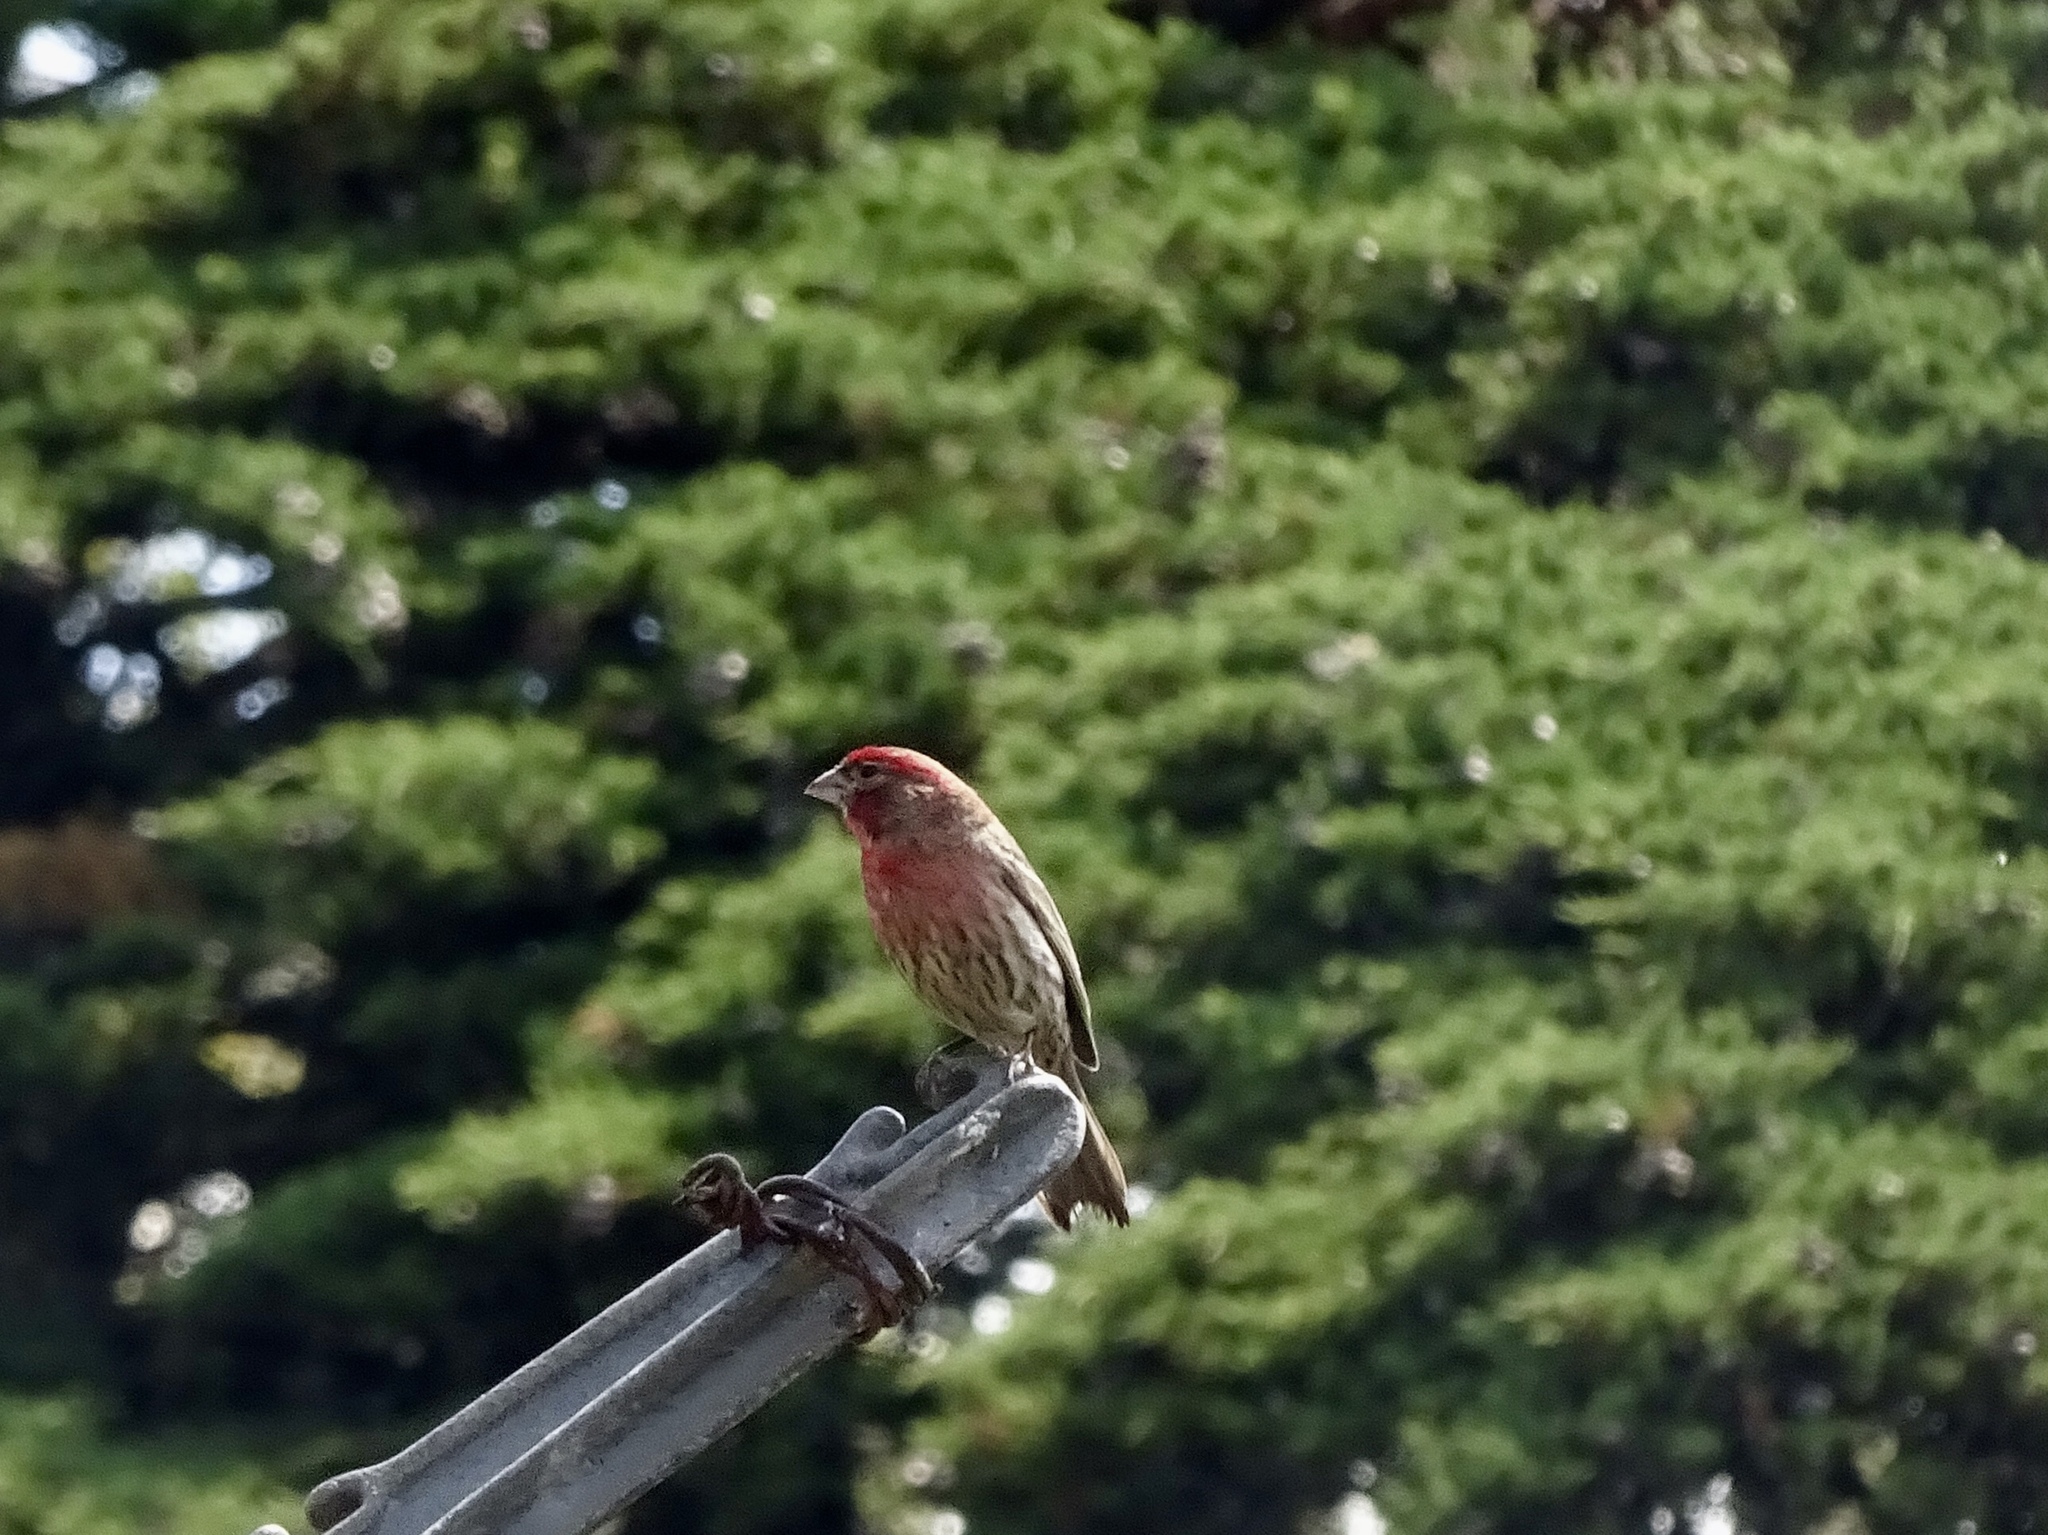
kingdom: Animalia
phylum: Chordata
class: Aves
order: Passeriformes
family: Fringillidae
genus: Haemorhous
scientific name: Haemorhous mexicanus
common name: House finch
